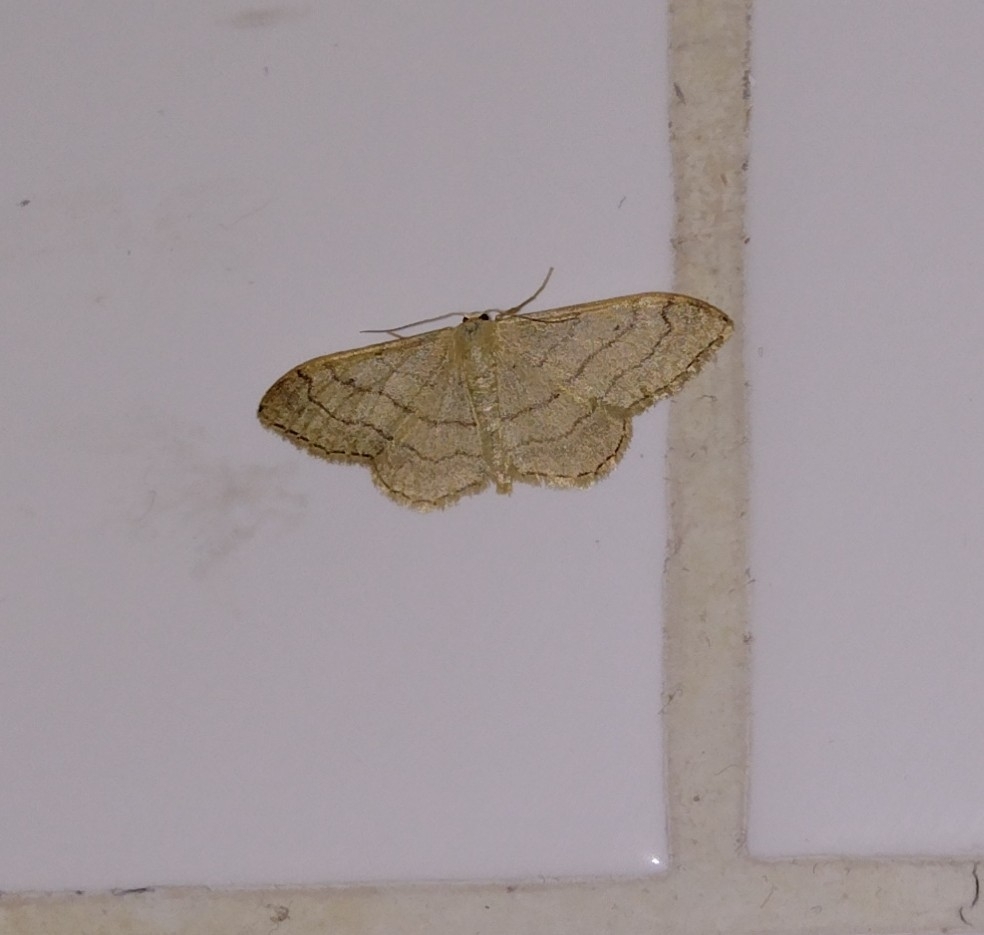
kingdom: Animalia
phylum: Arthropoda
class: Insecta
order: Lepidoptera
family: Geometridae
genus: Idaea
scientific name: Idaea aversata
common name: Riband wave
